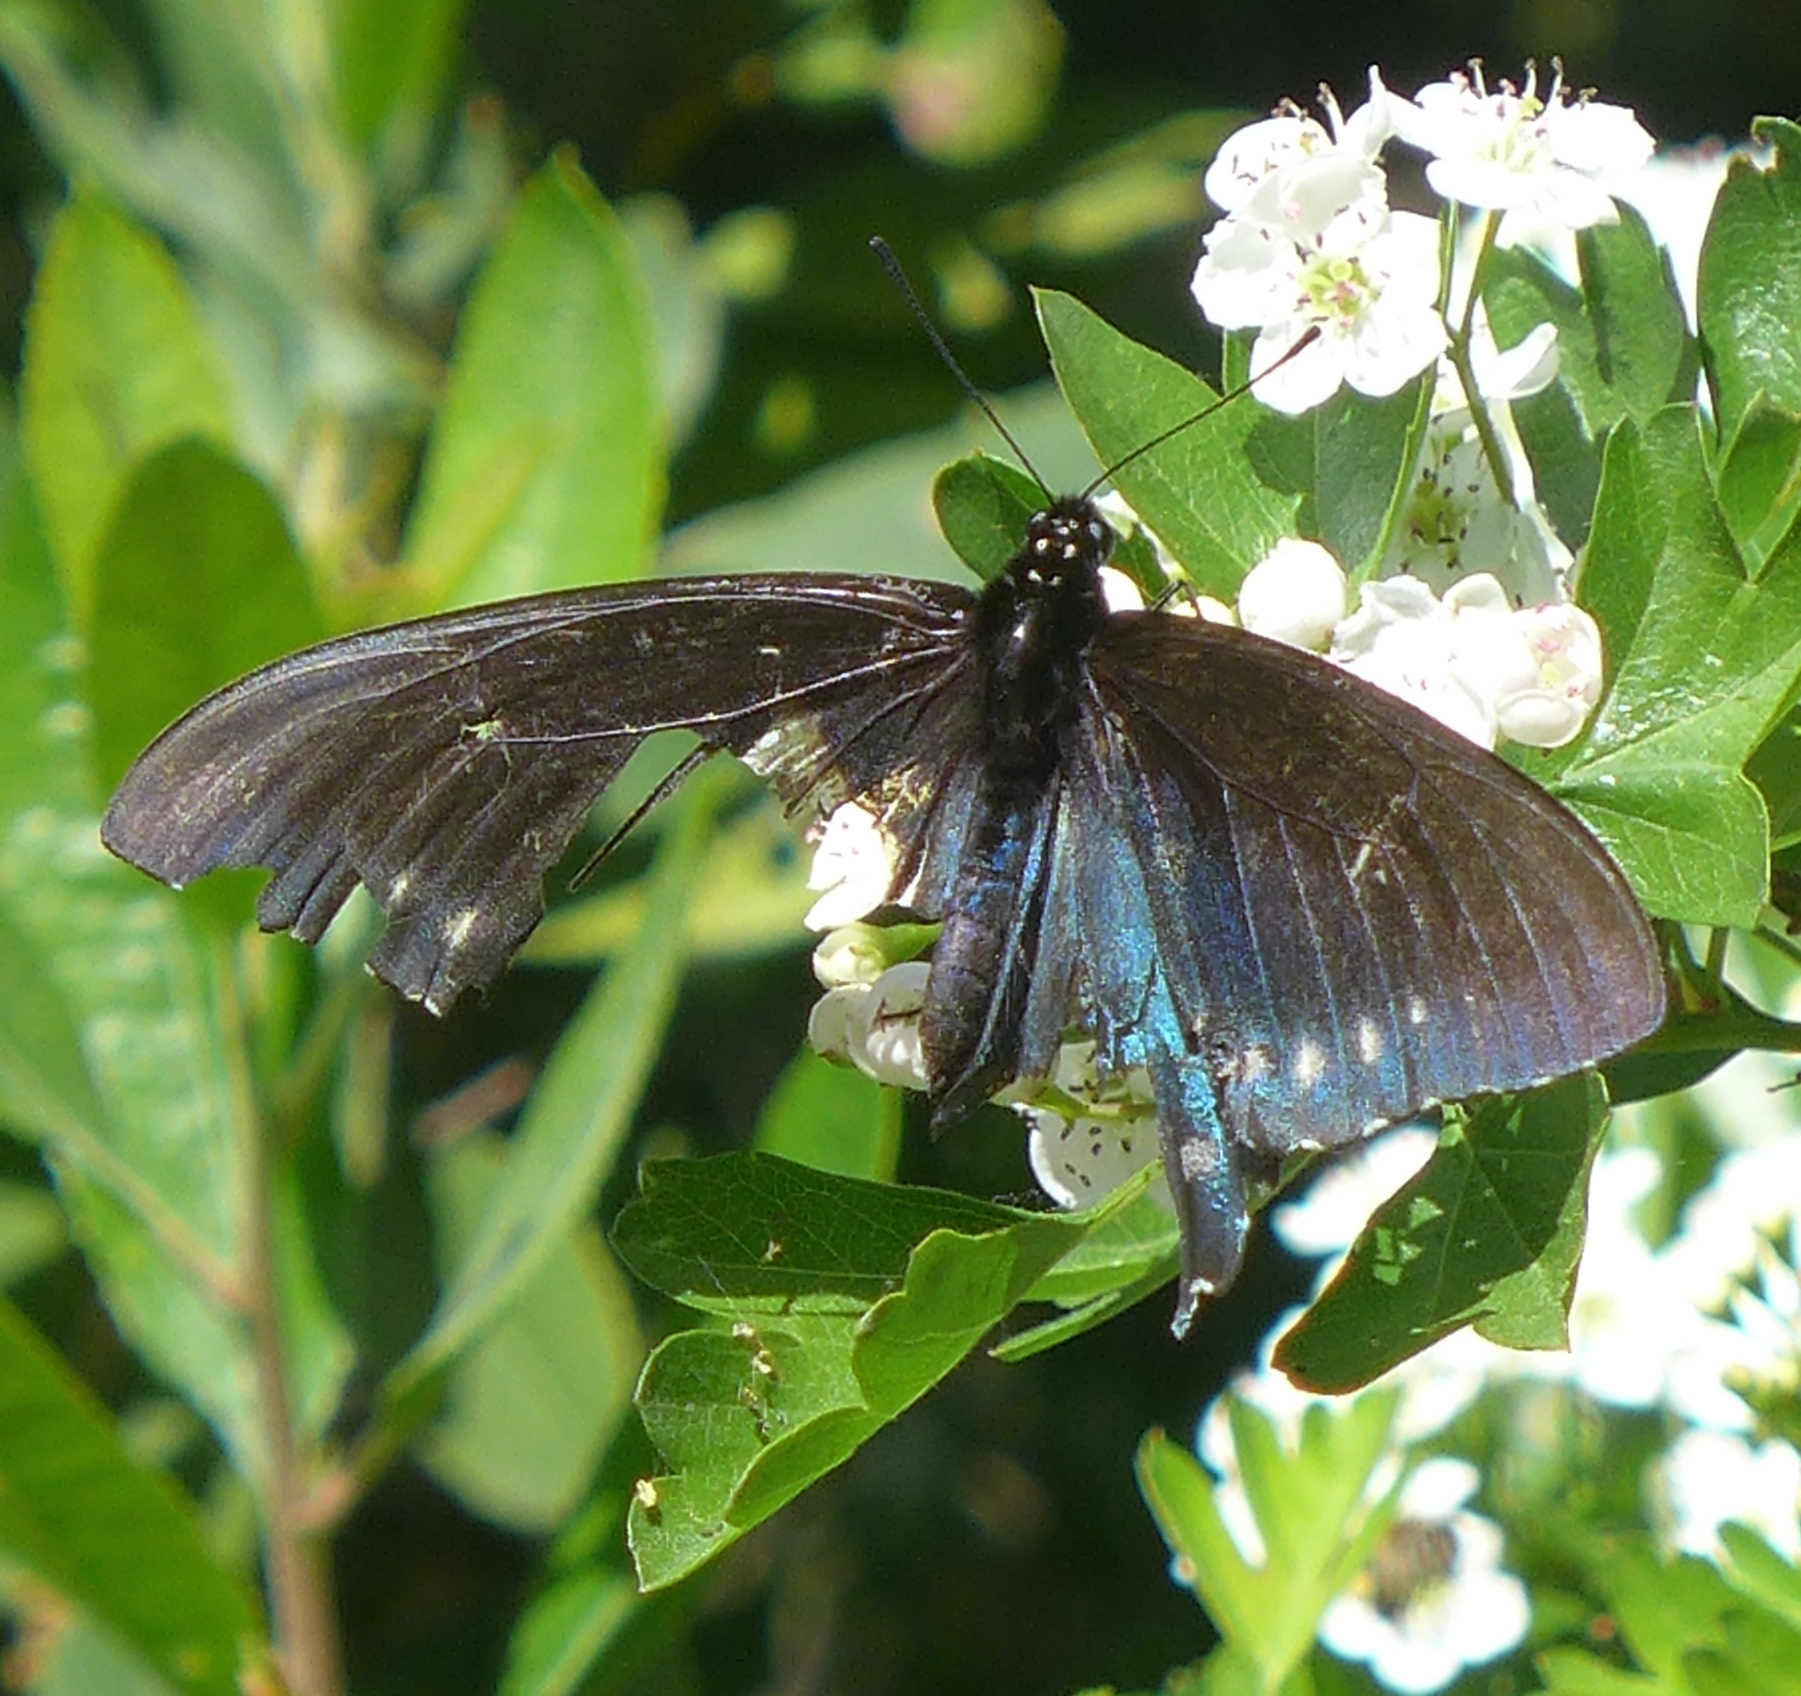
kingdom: Animalia
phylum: Arthropoda
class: Insecta
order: Lepidoptera
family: Papilionidae
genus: Battus
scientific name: Battus philenor
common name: Pipevine swallowtail
